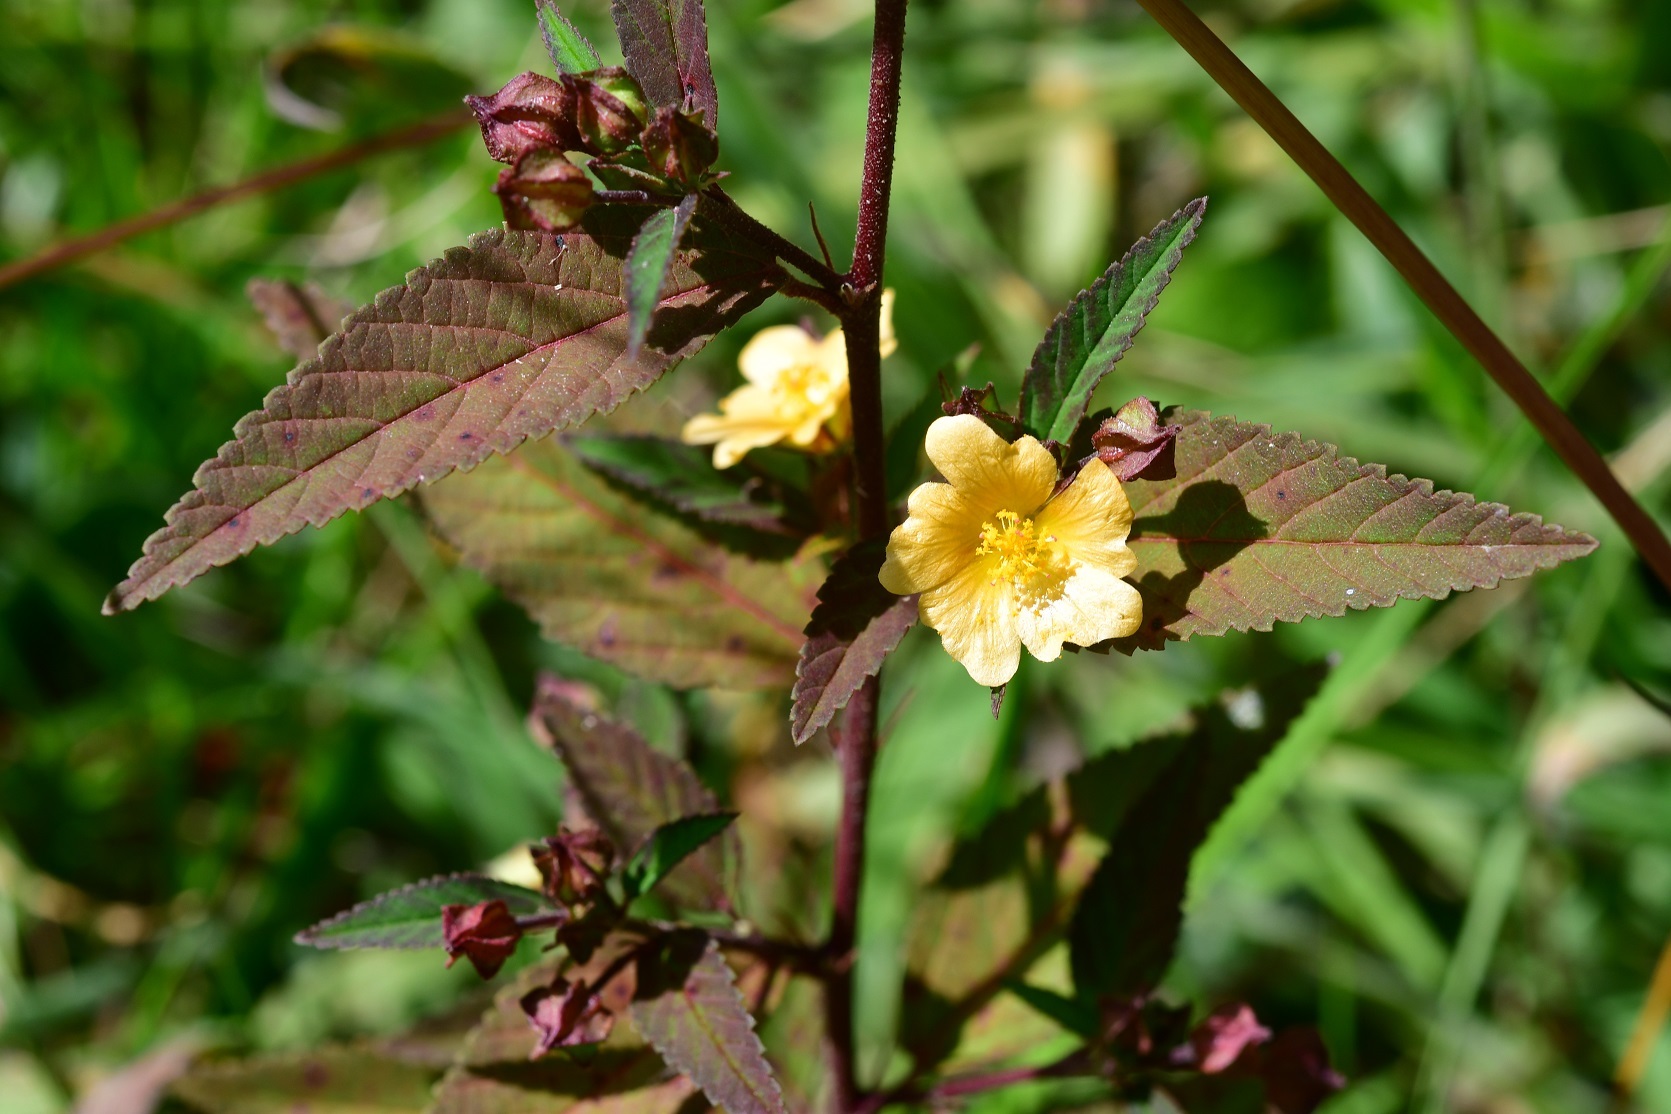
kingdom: Plantae
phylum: Tracheophyta
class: Magnoliopsida
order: Malvales
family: Malvaceae
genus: Sida
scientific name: Sida acuta
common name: Common wireweed
